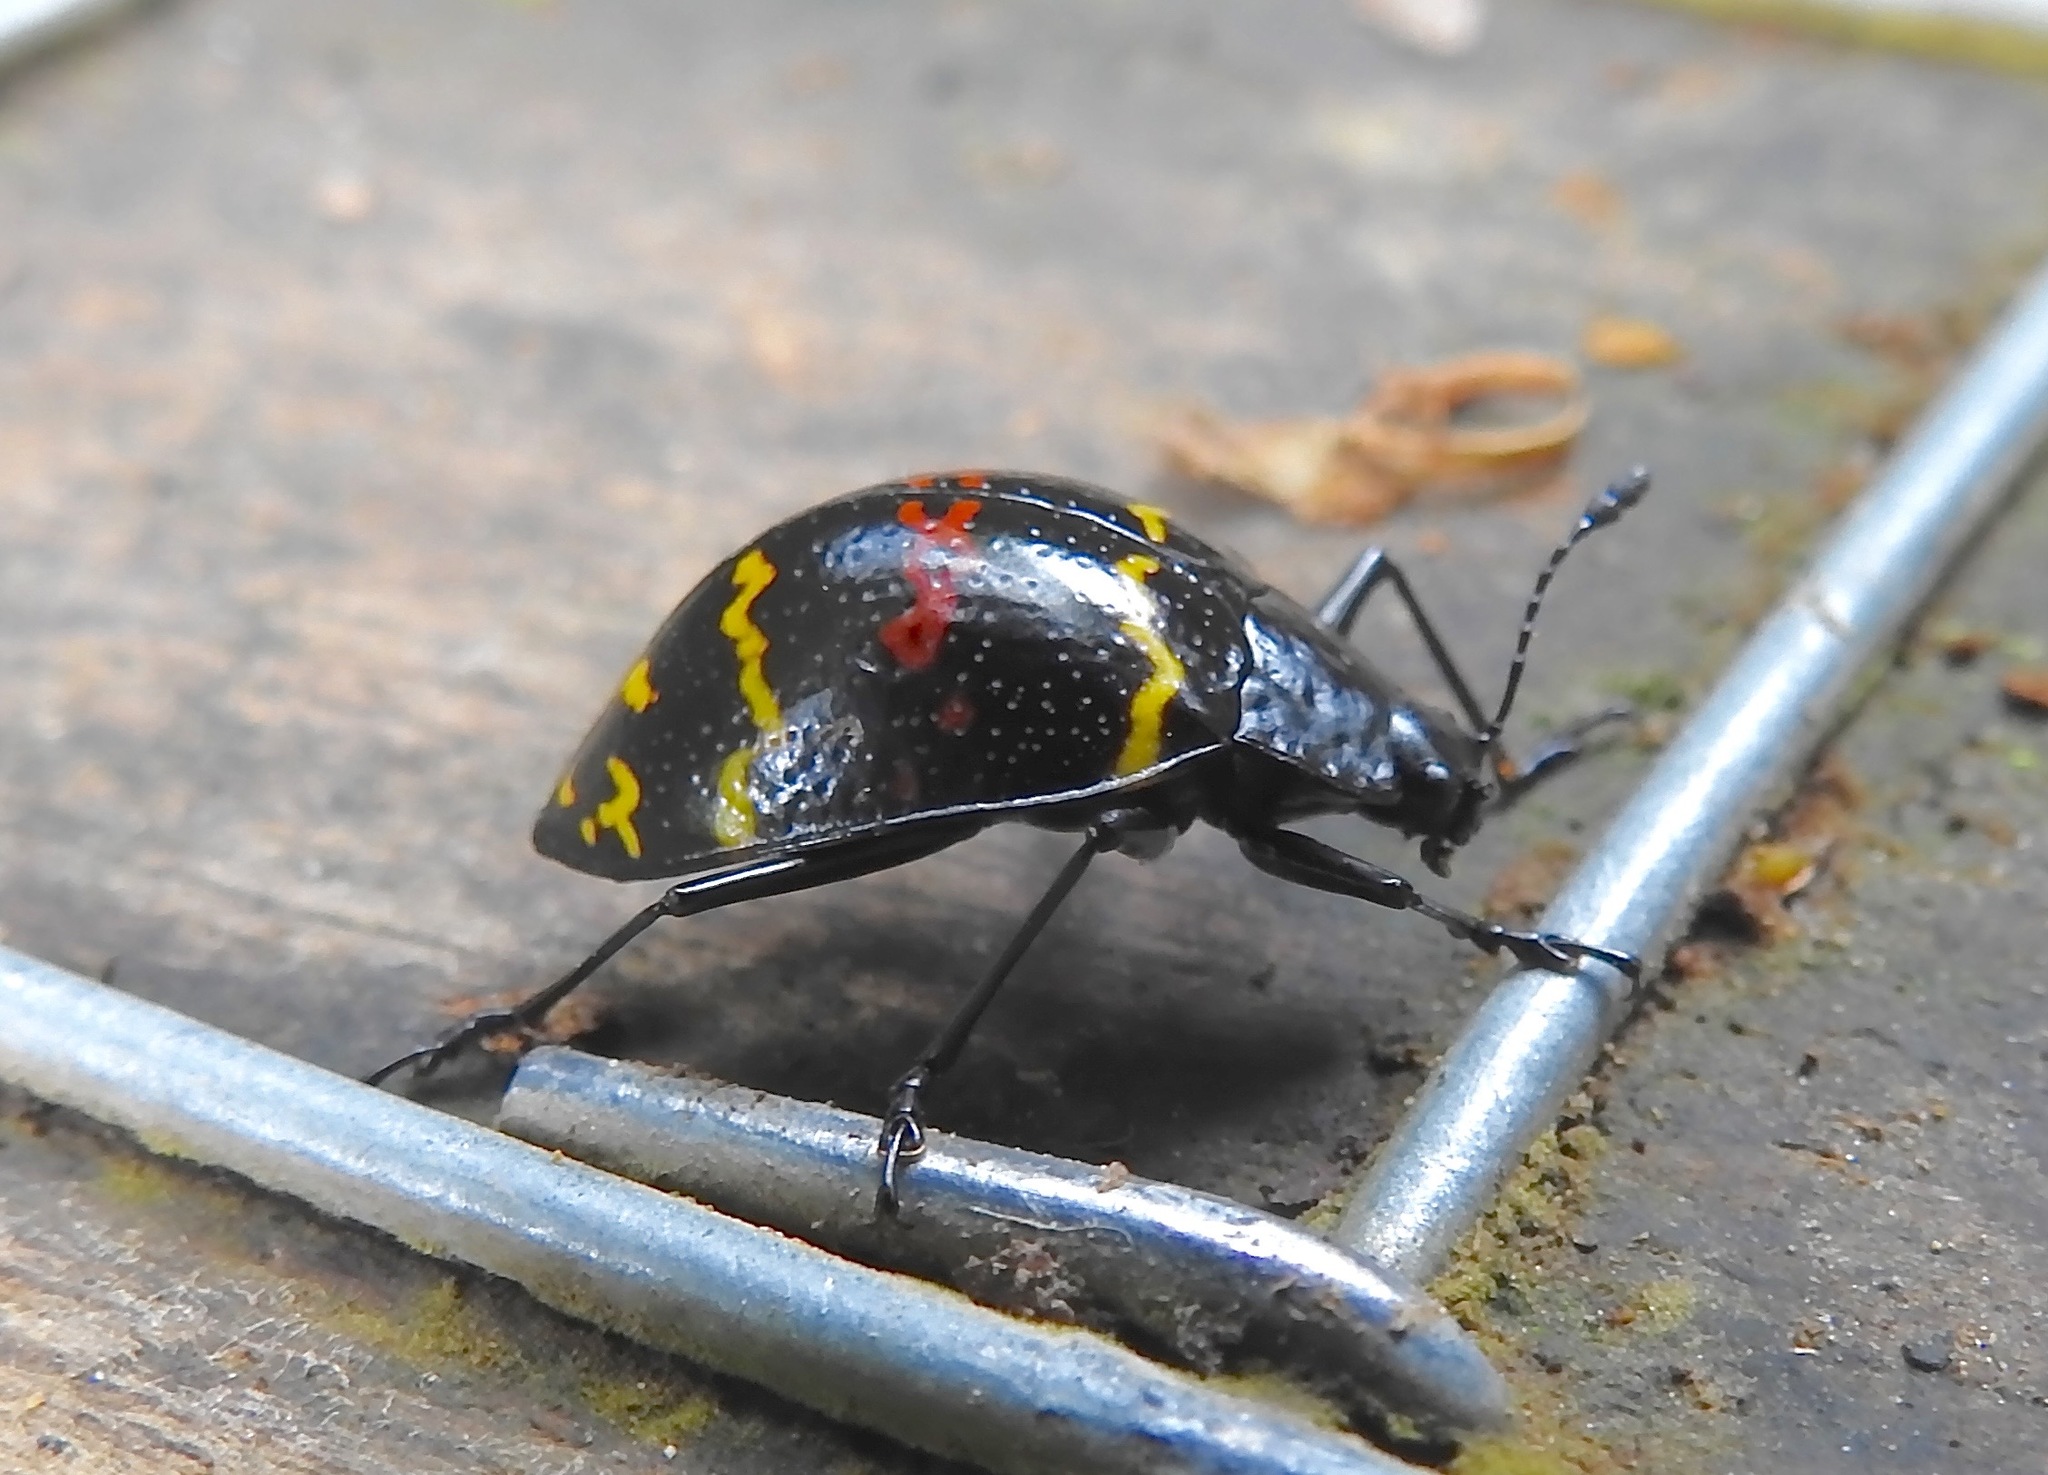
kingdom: Animalia
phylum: Arthropoda
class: Insecta
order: Coleoptera
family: Erotylidae
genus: Erotylus
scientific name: Erotylus
